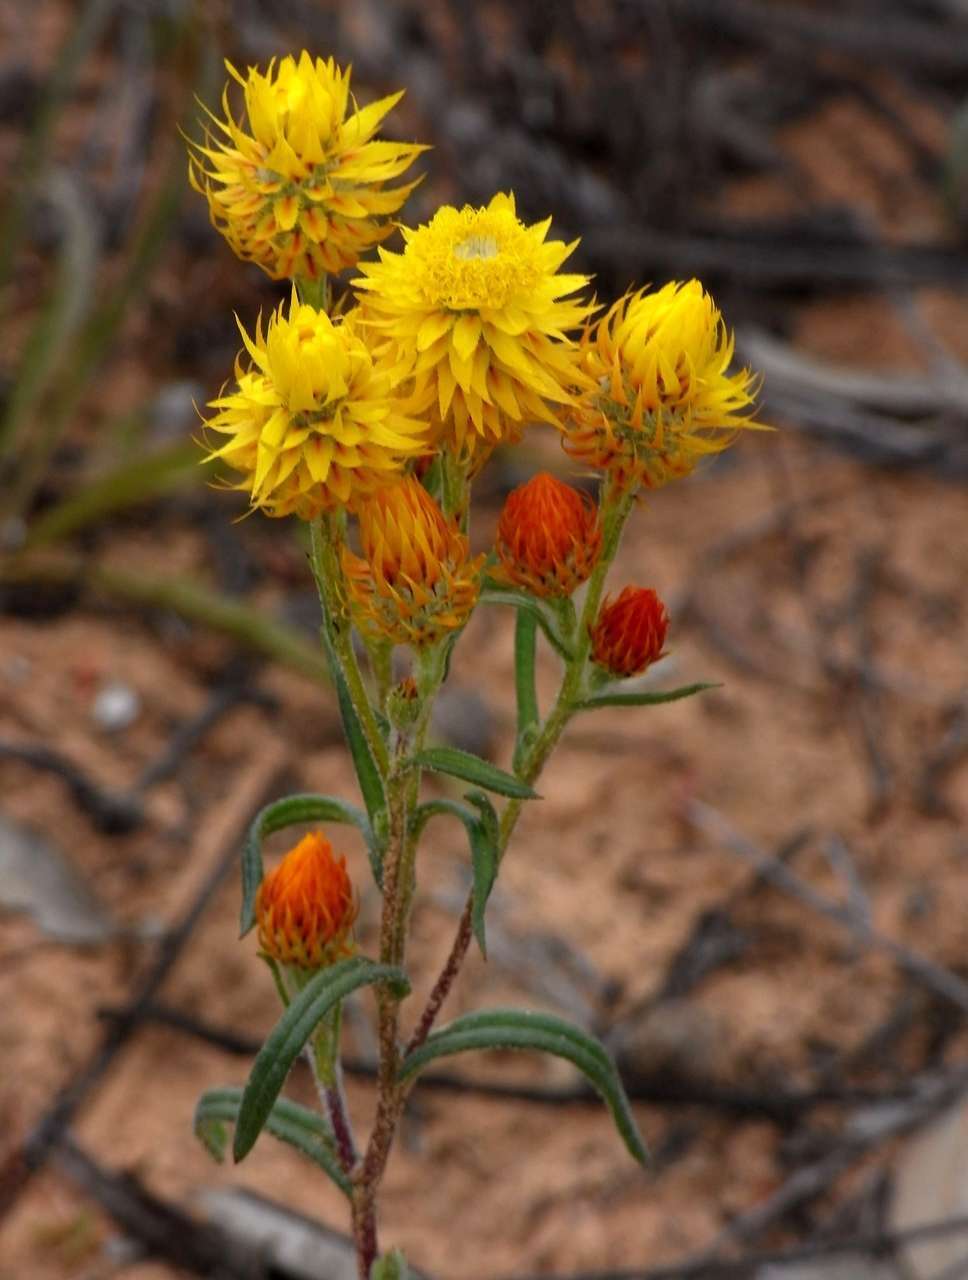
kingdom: Plantae
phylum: Tracheophyta
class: Magnoliopsida
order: Asterales
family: Asteraceae
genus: Waitzia
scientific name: Waitzia acuminata
